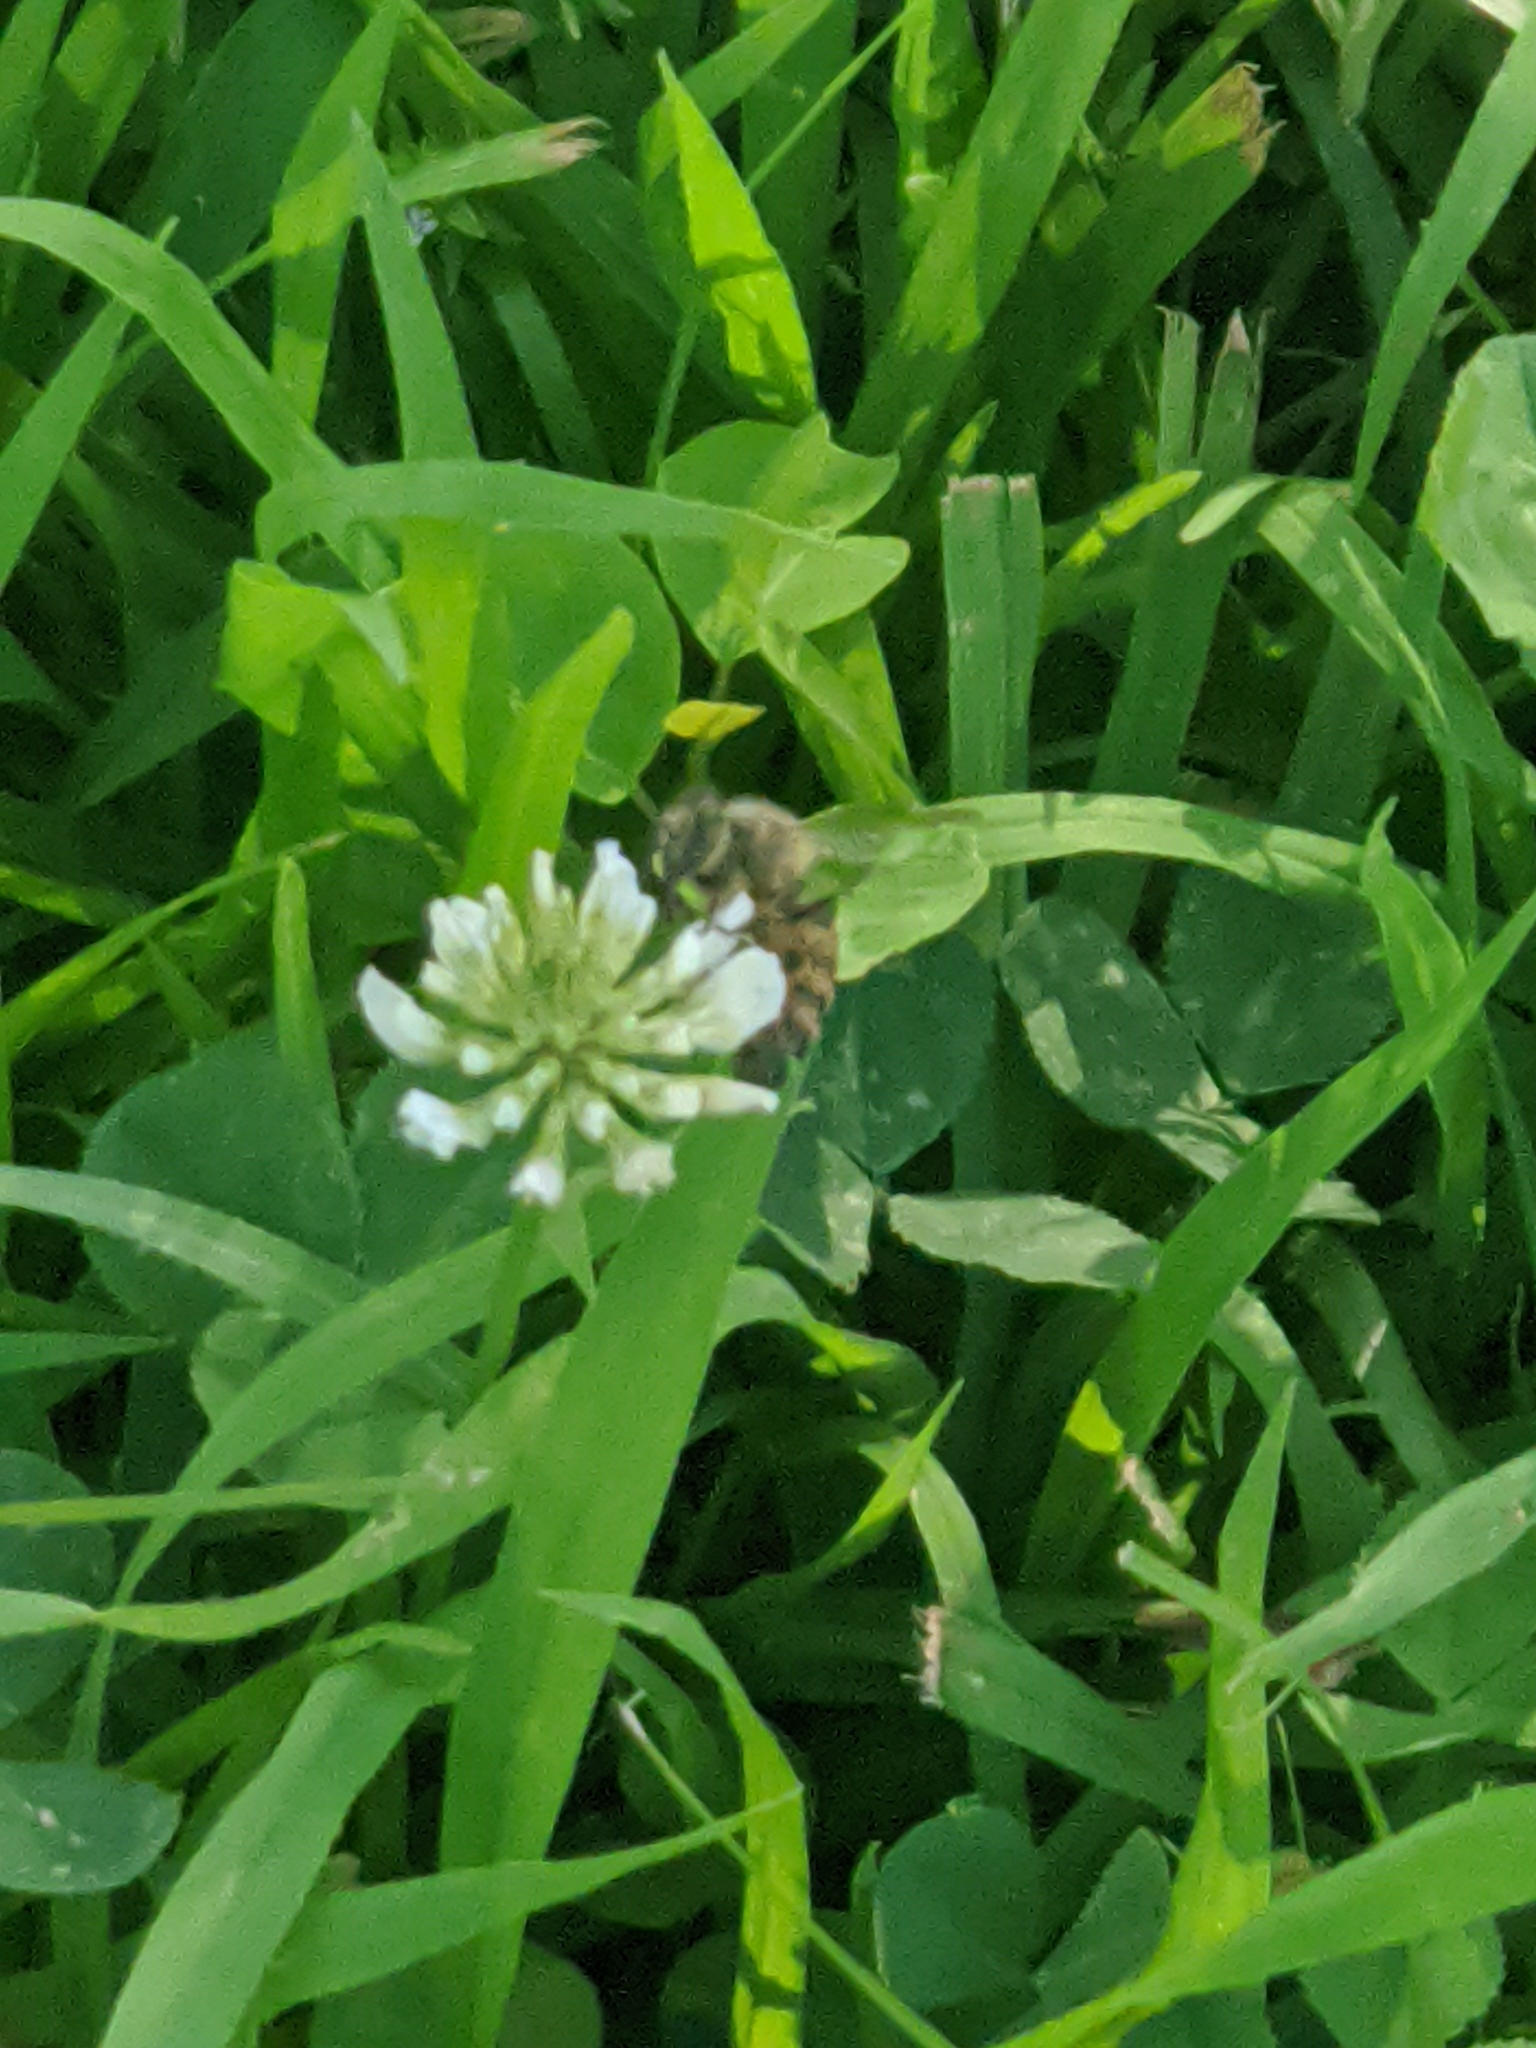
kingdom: Animalia
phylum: Arthropoda
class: Insecta
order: Hymenoptera
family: Apidae
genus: Apis
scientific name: Apis mellifera
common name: Honey bee
